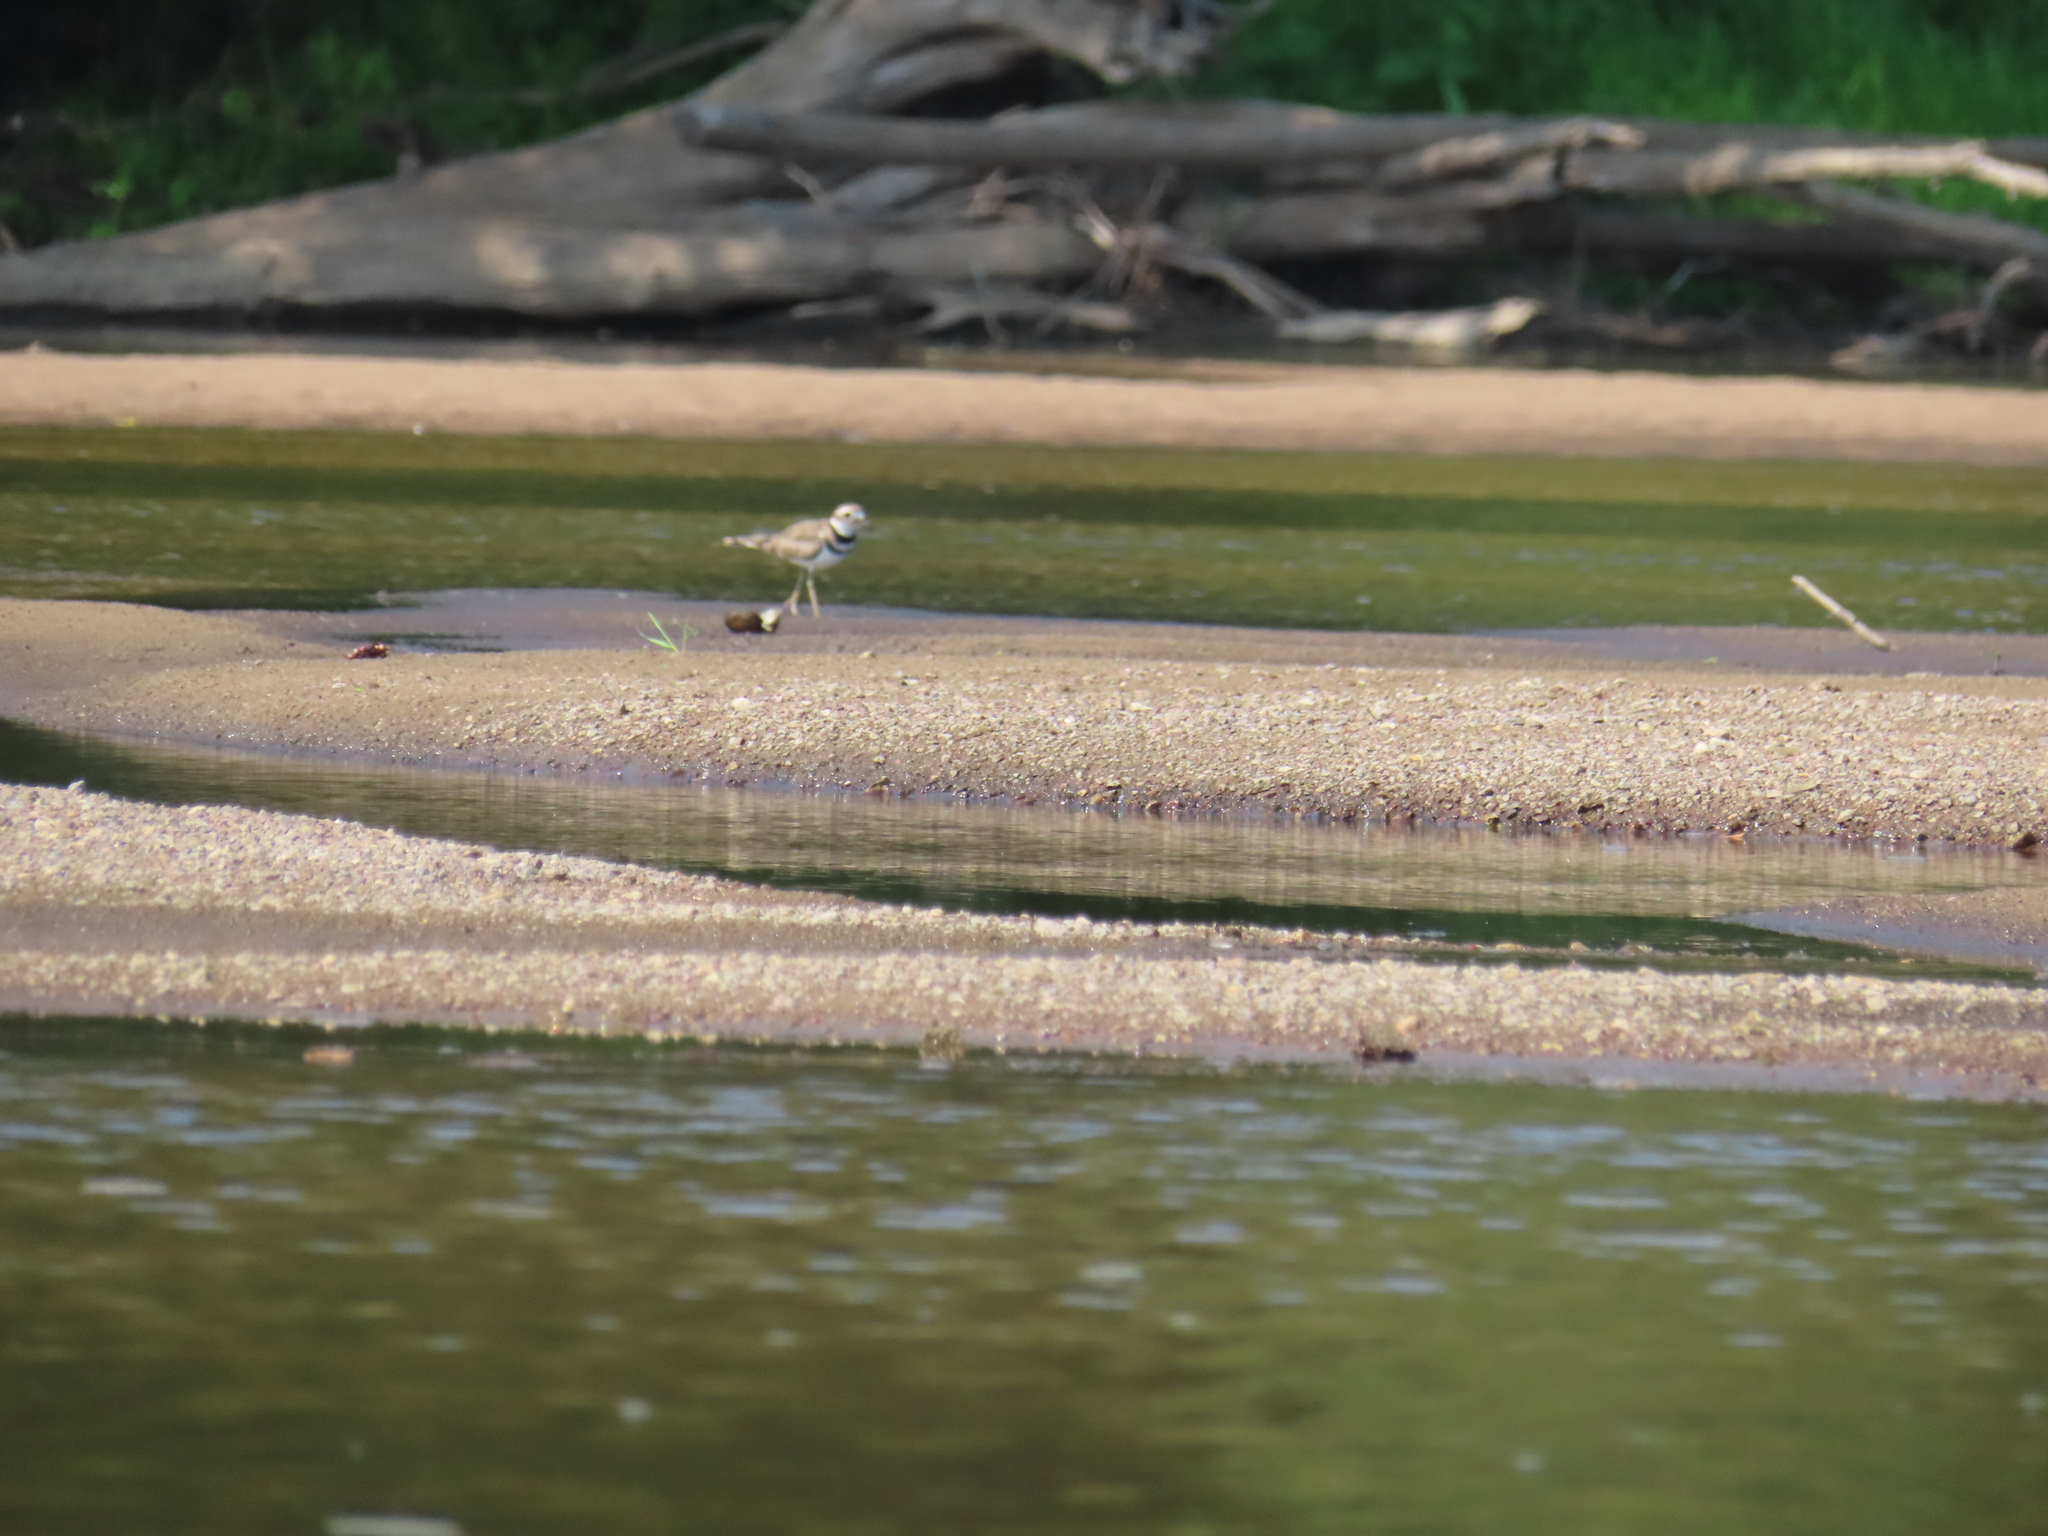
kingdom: Animalia
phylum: Chordata
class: Aves
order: Charadriiformes
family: Charadriidae
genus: Charadrius
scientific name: Charadrius vociferus
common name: Killdeer
